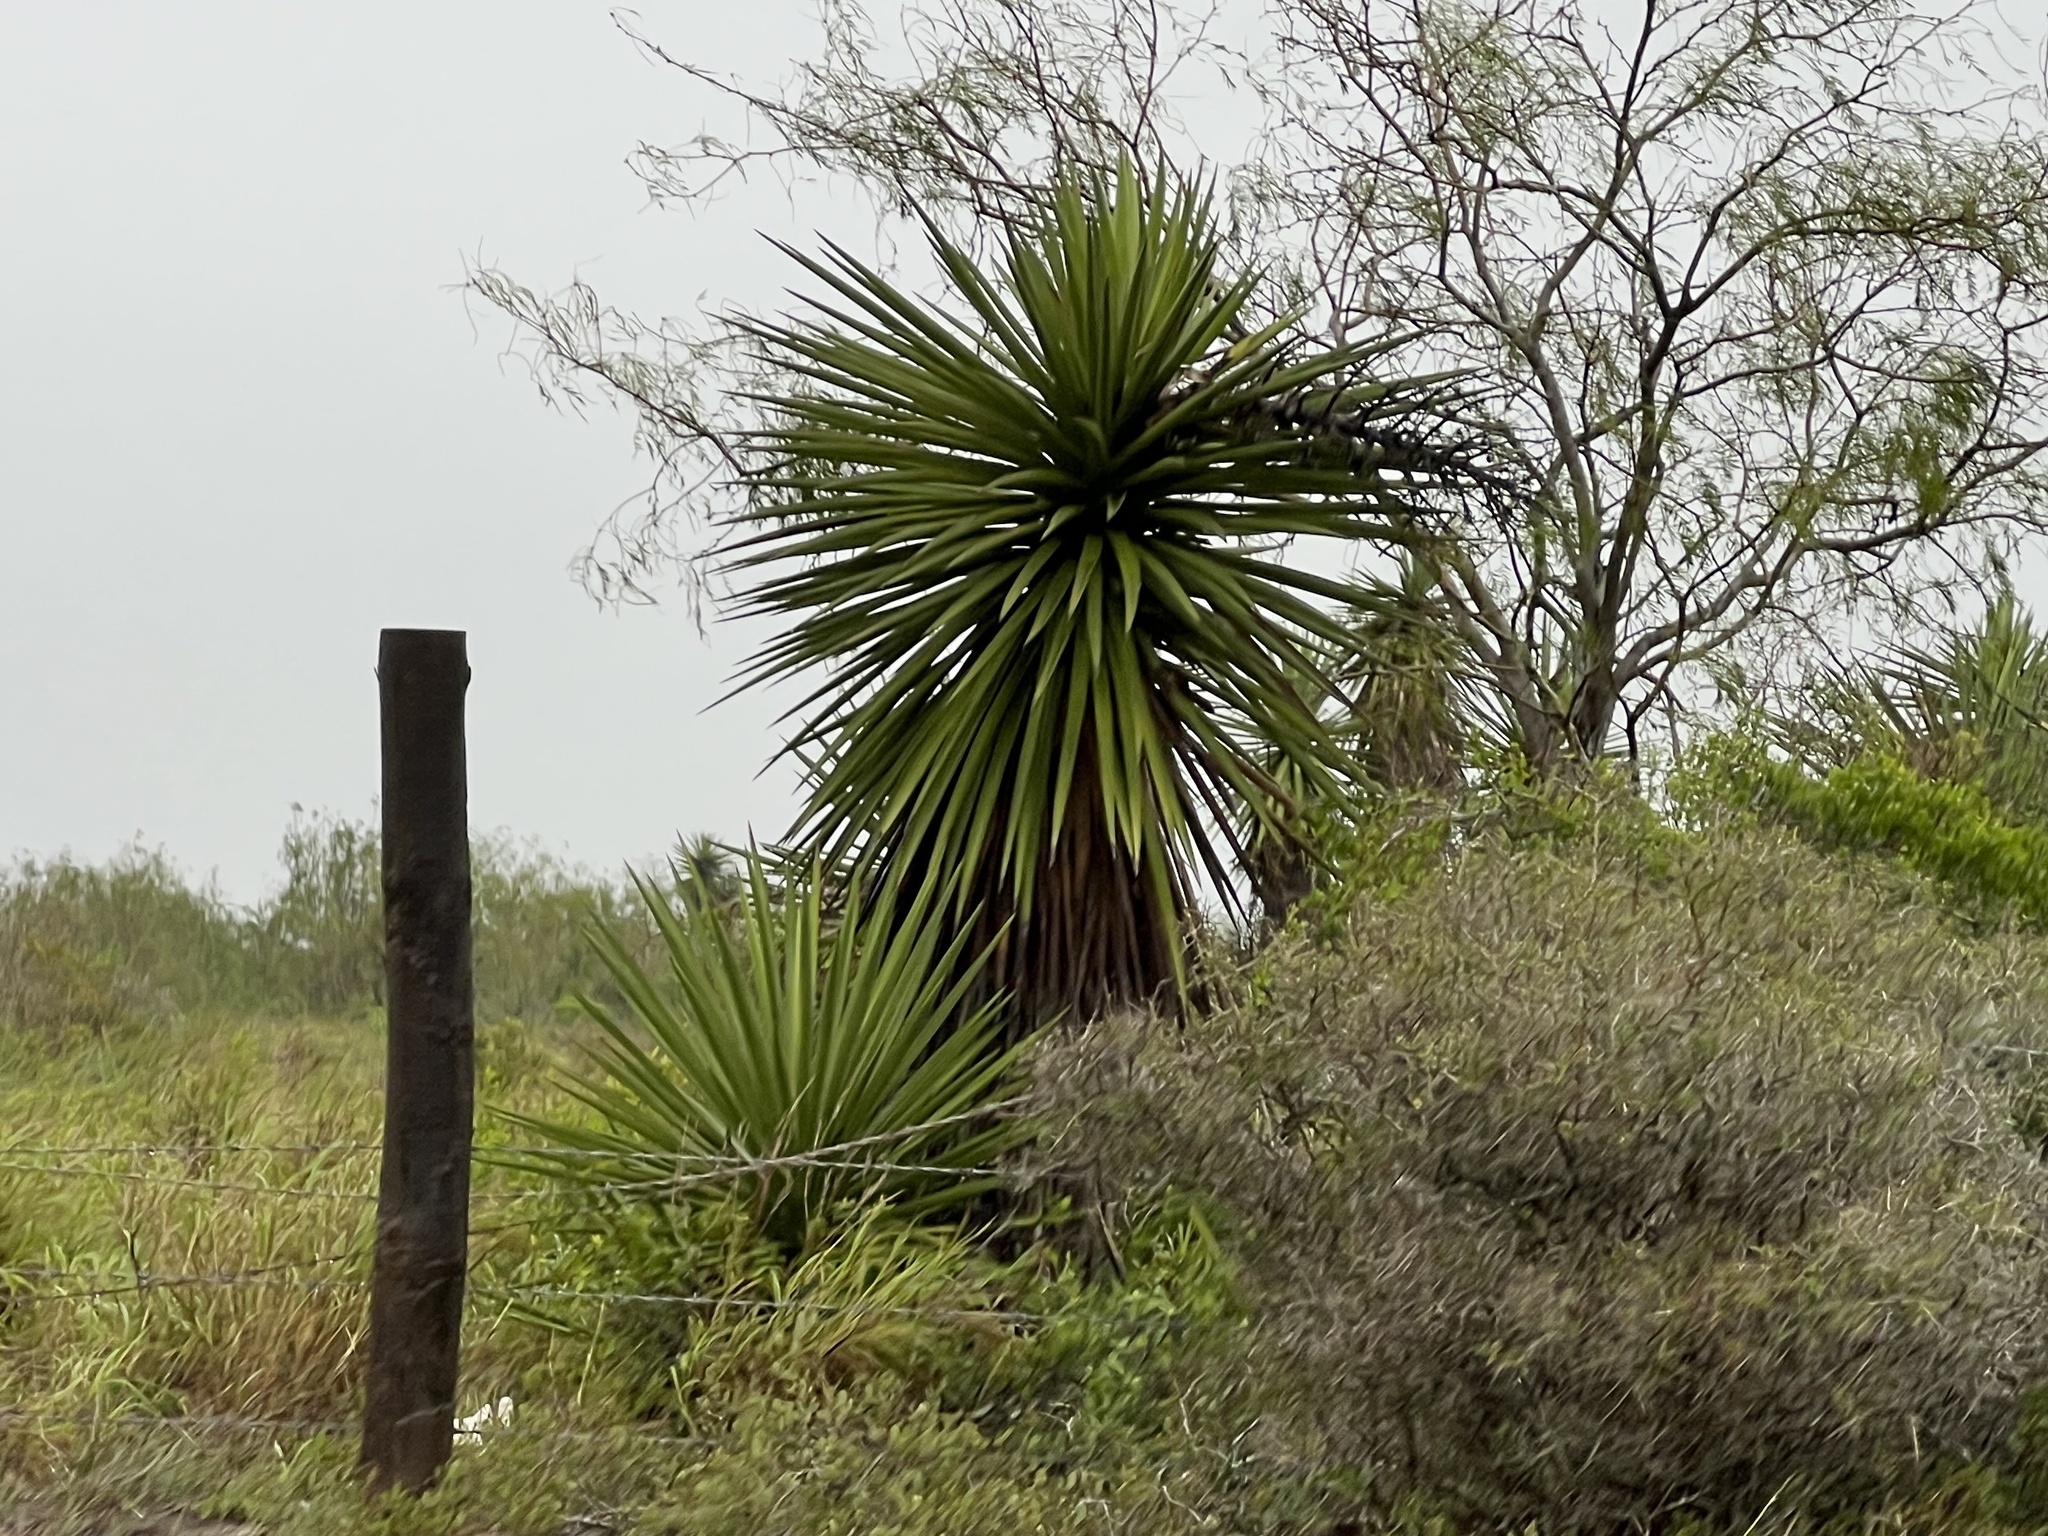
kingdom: Plantae
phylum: Tracheophyta
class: Liliopsida
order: Asparagales
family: Asparagaceae
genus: Yucca
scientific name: Yucca treculiana
